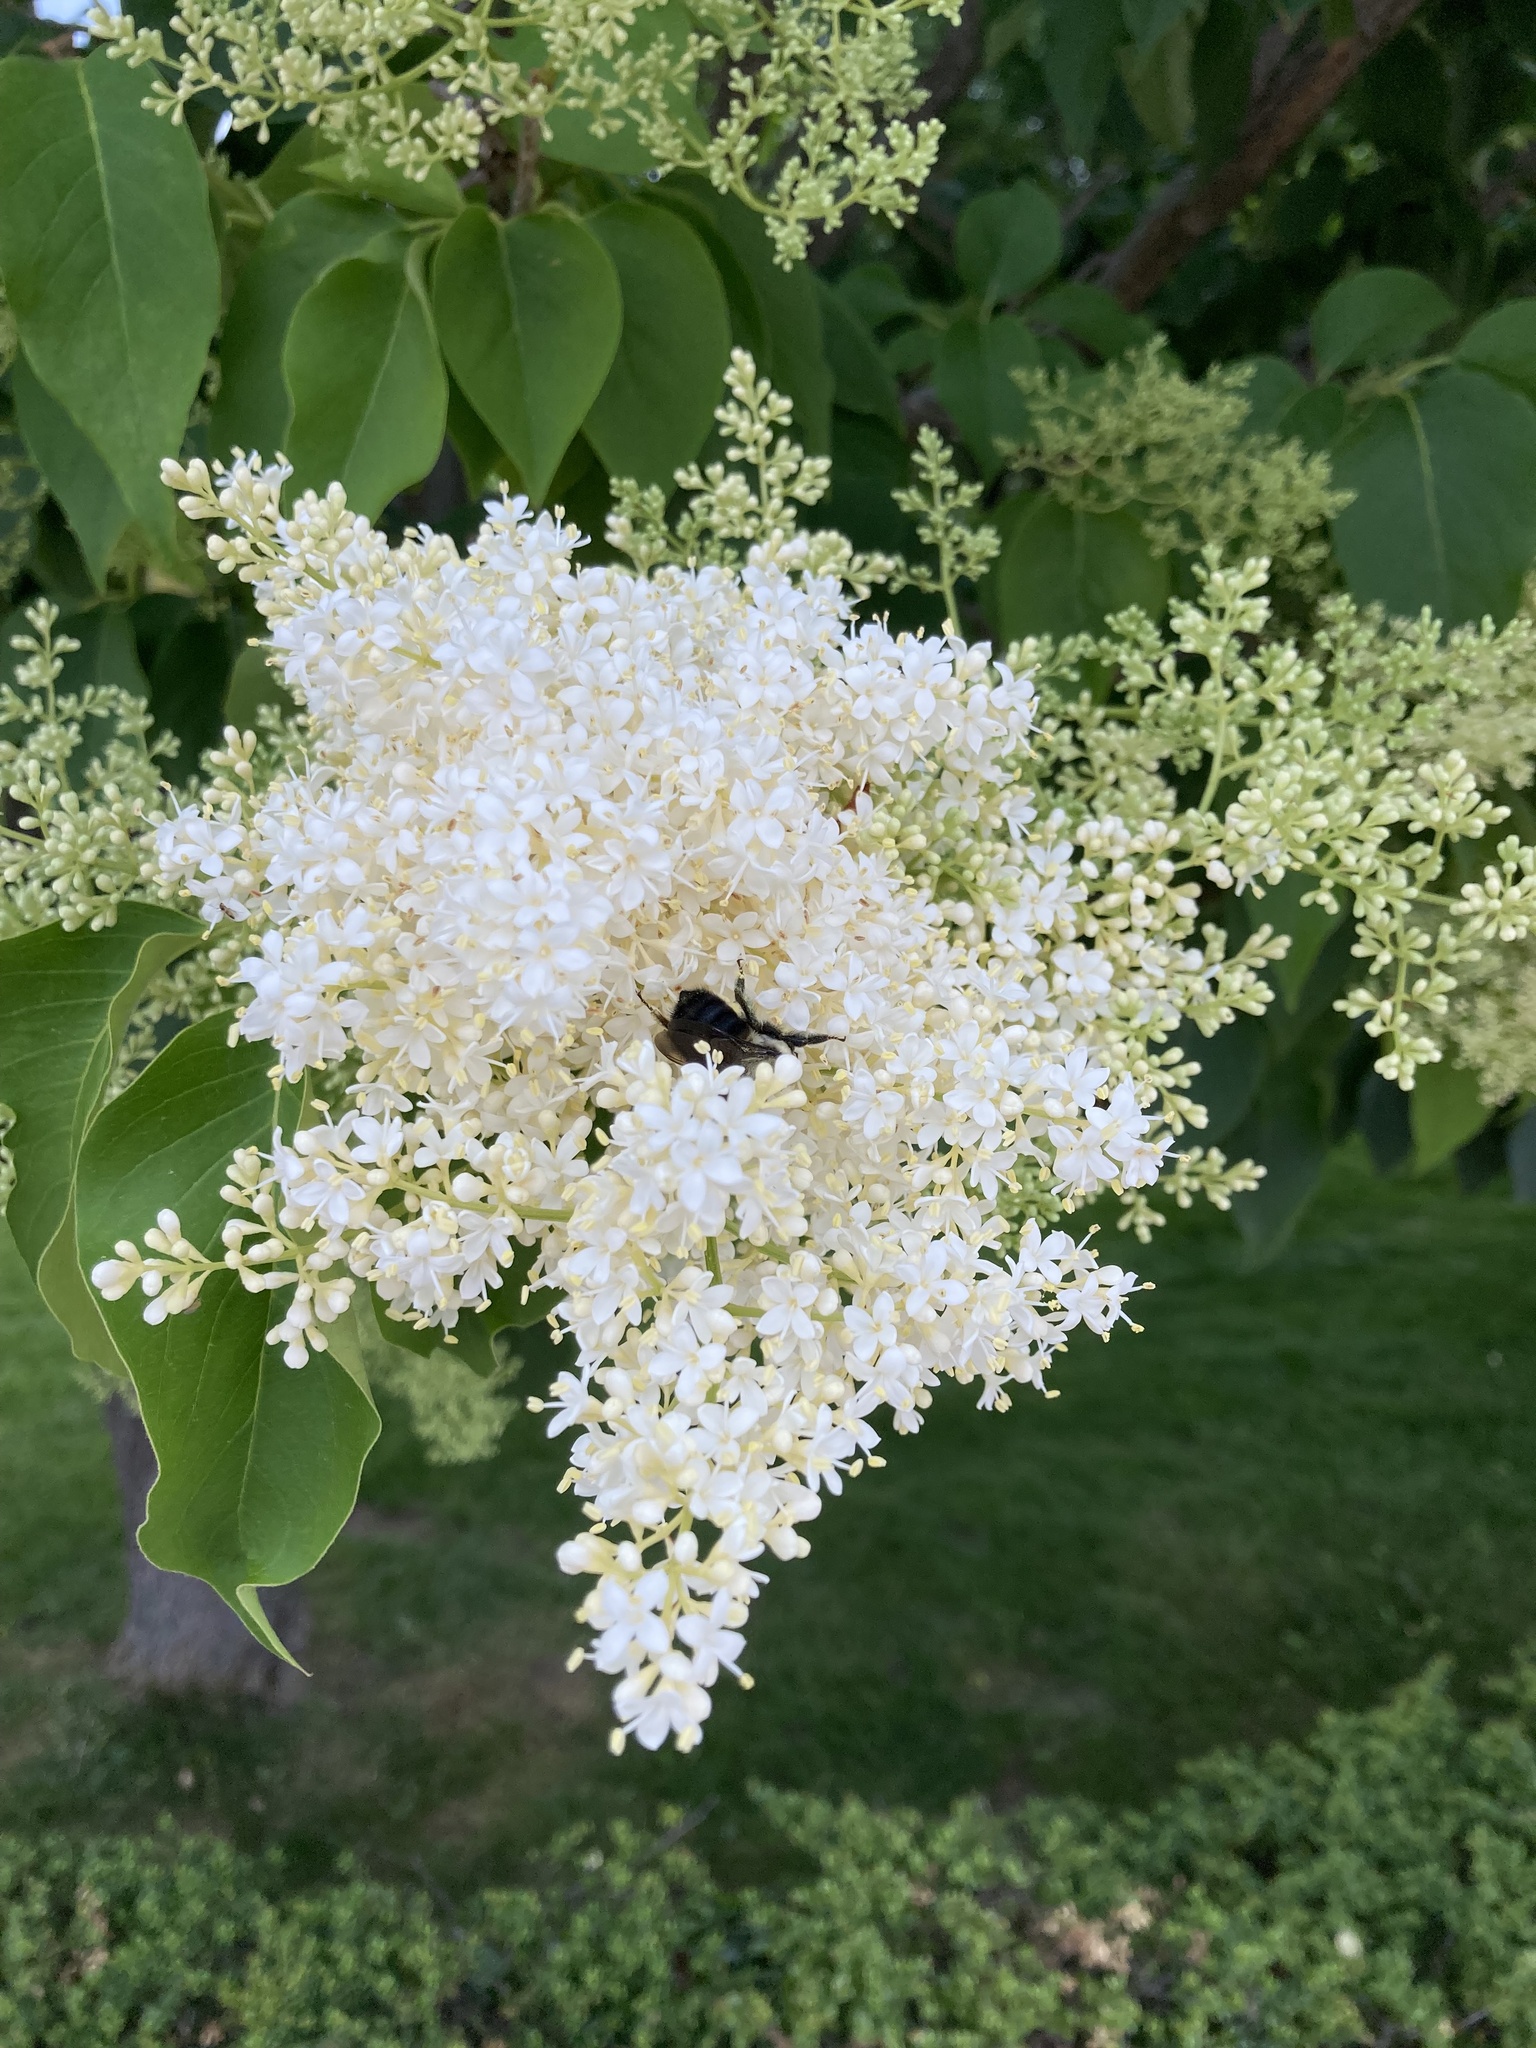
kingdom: Animalia
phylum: Arthropoda
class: Insecta
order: Hymenoptera
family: Apidae
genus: Bombus
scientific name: Bombus griseocollis
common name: Brown-belted bumble bee
